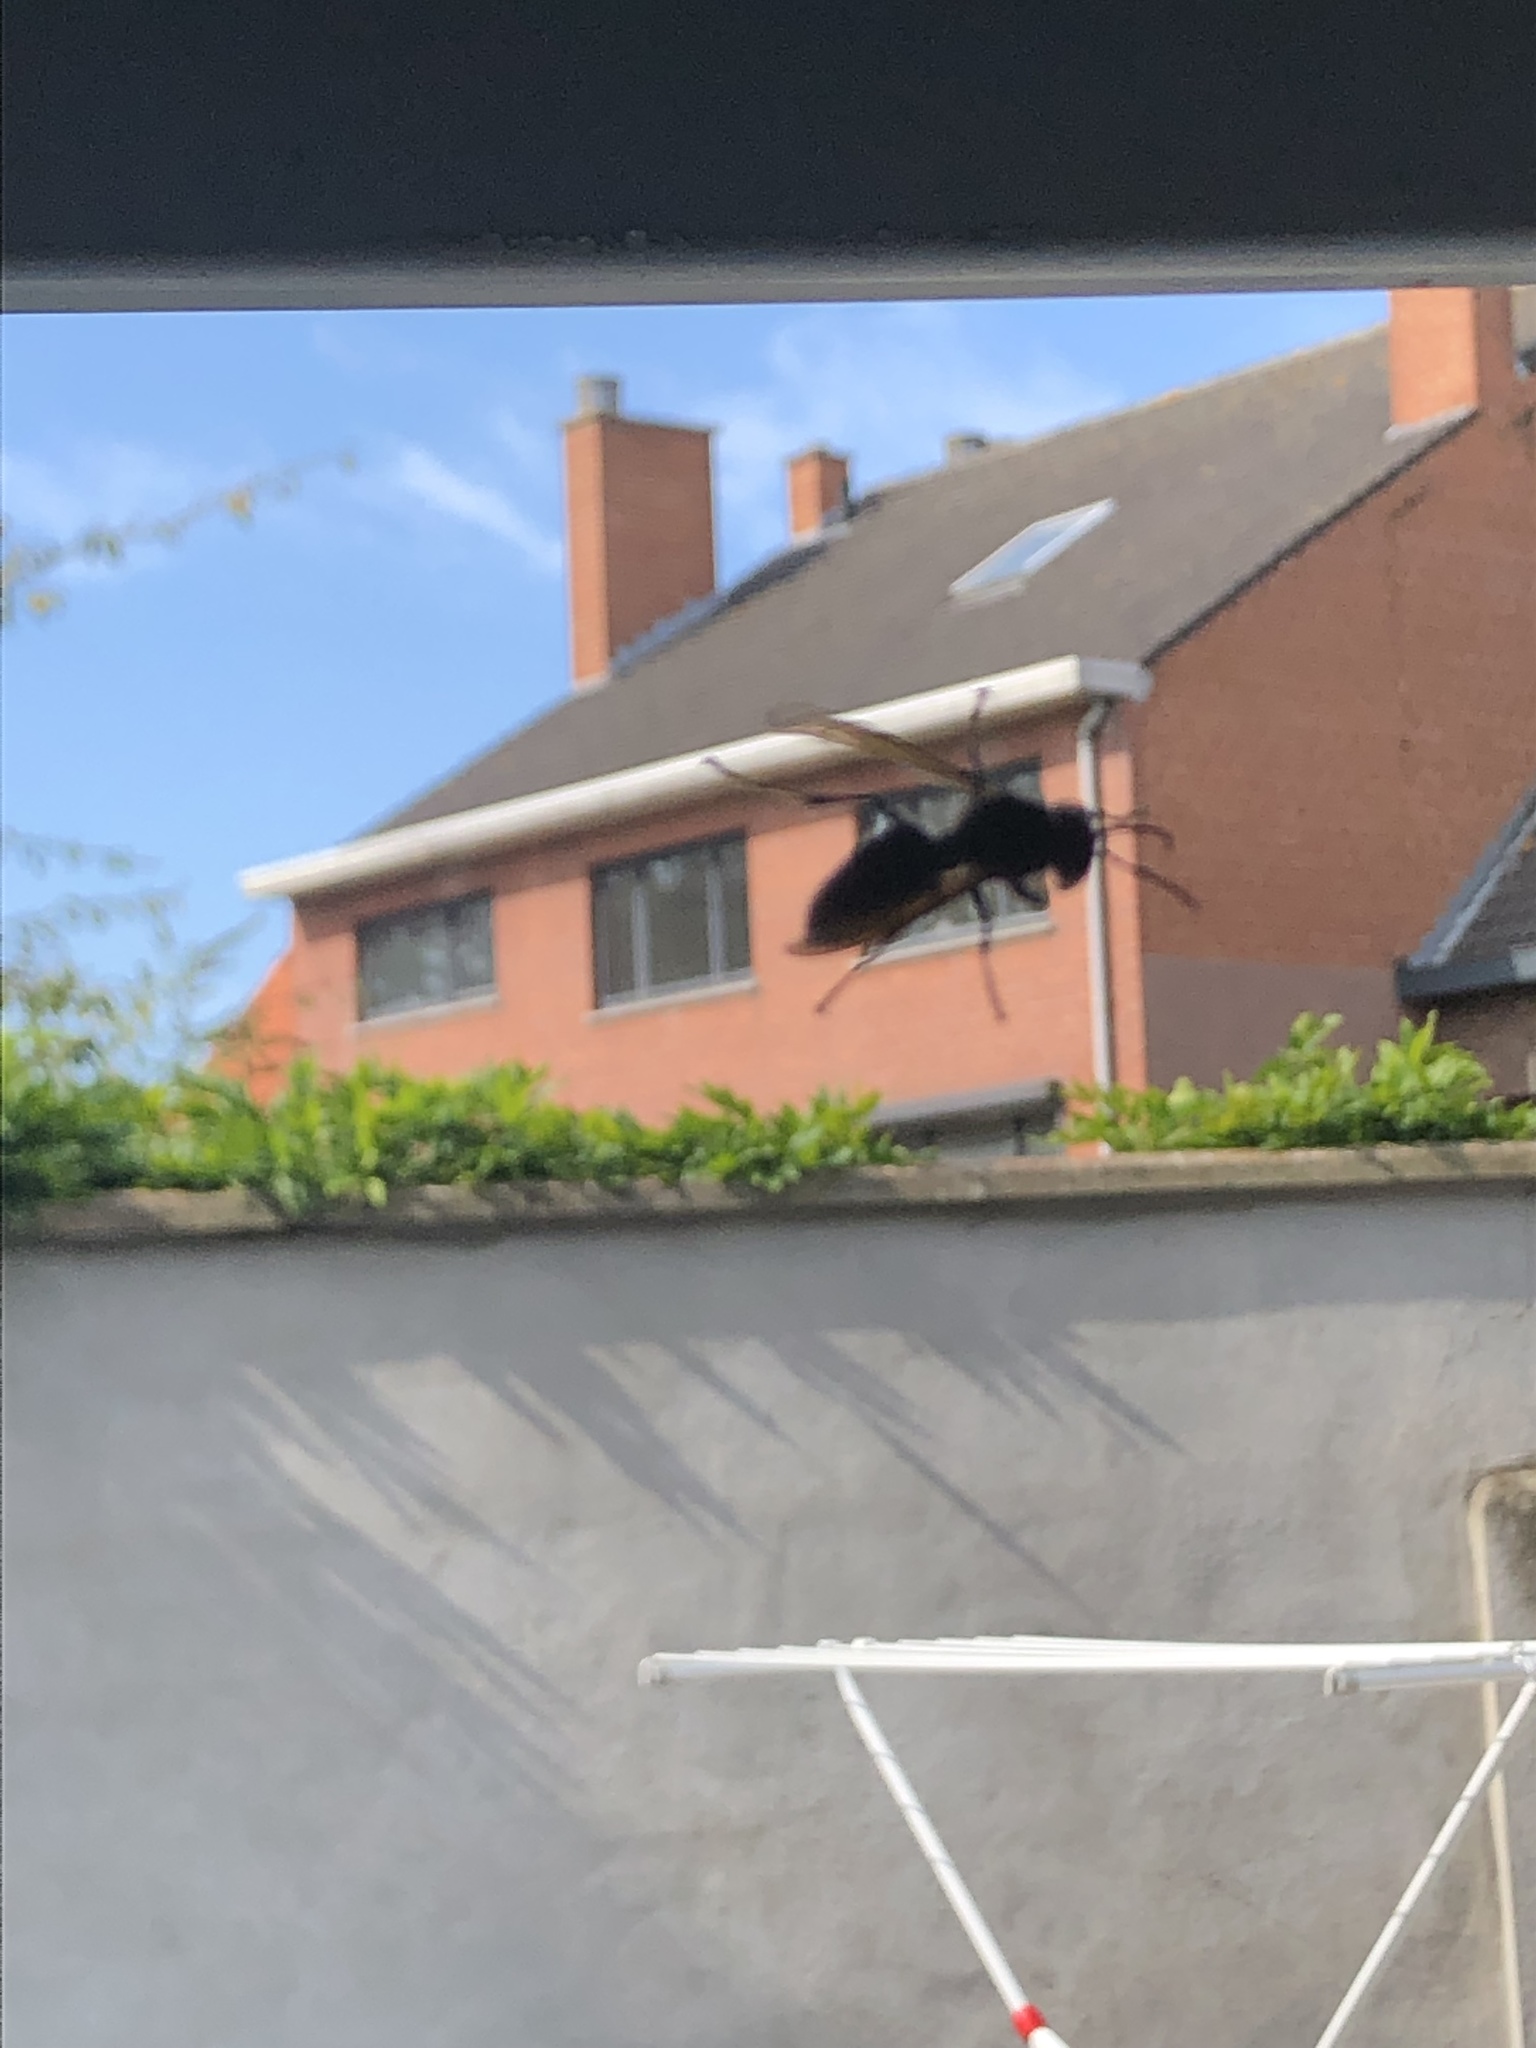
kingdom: Animalia
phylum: Arthropoda
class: Insecta
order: Hymenoptera
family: Vespidae
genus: Vespa
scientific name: Vespa velutina
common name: Asian hornet
